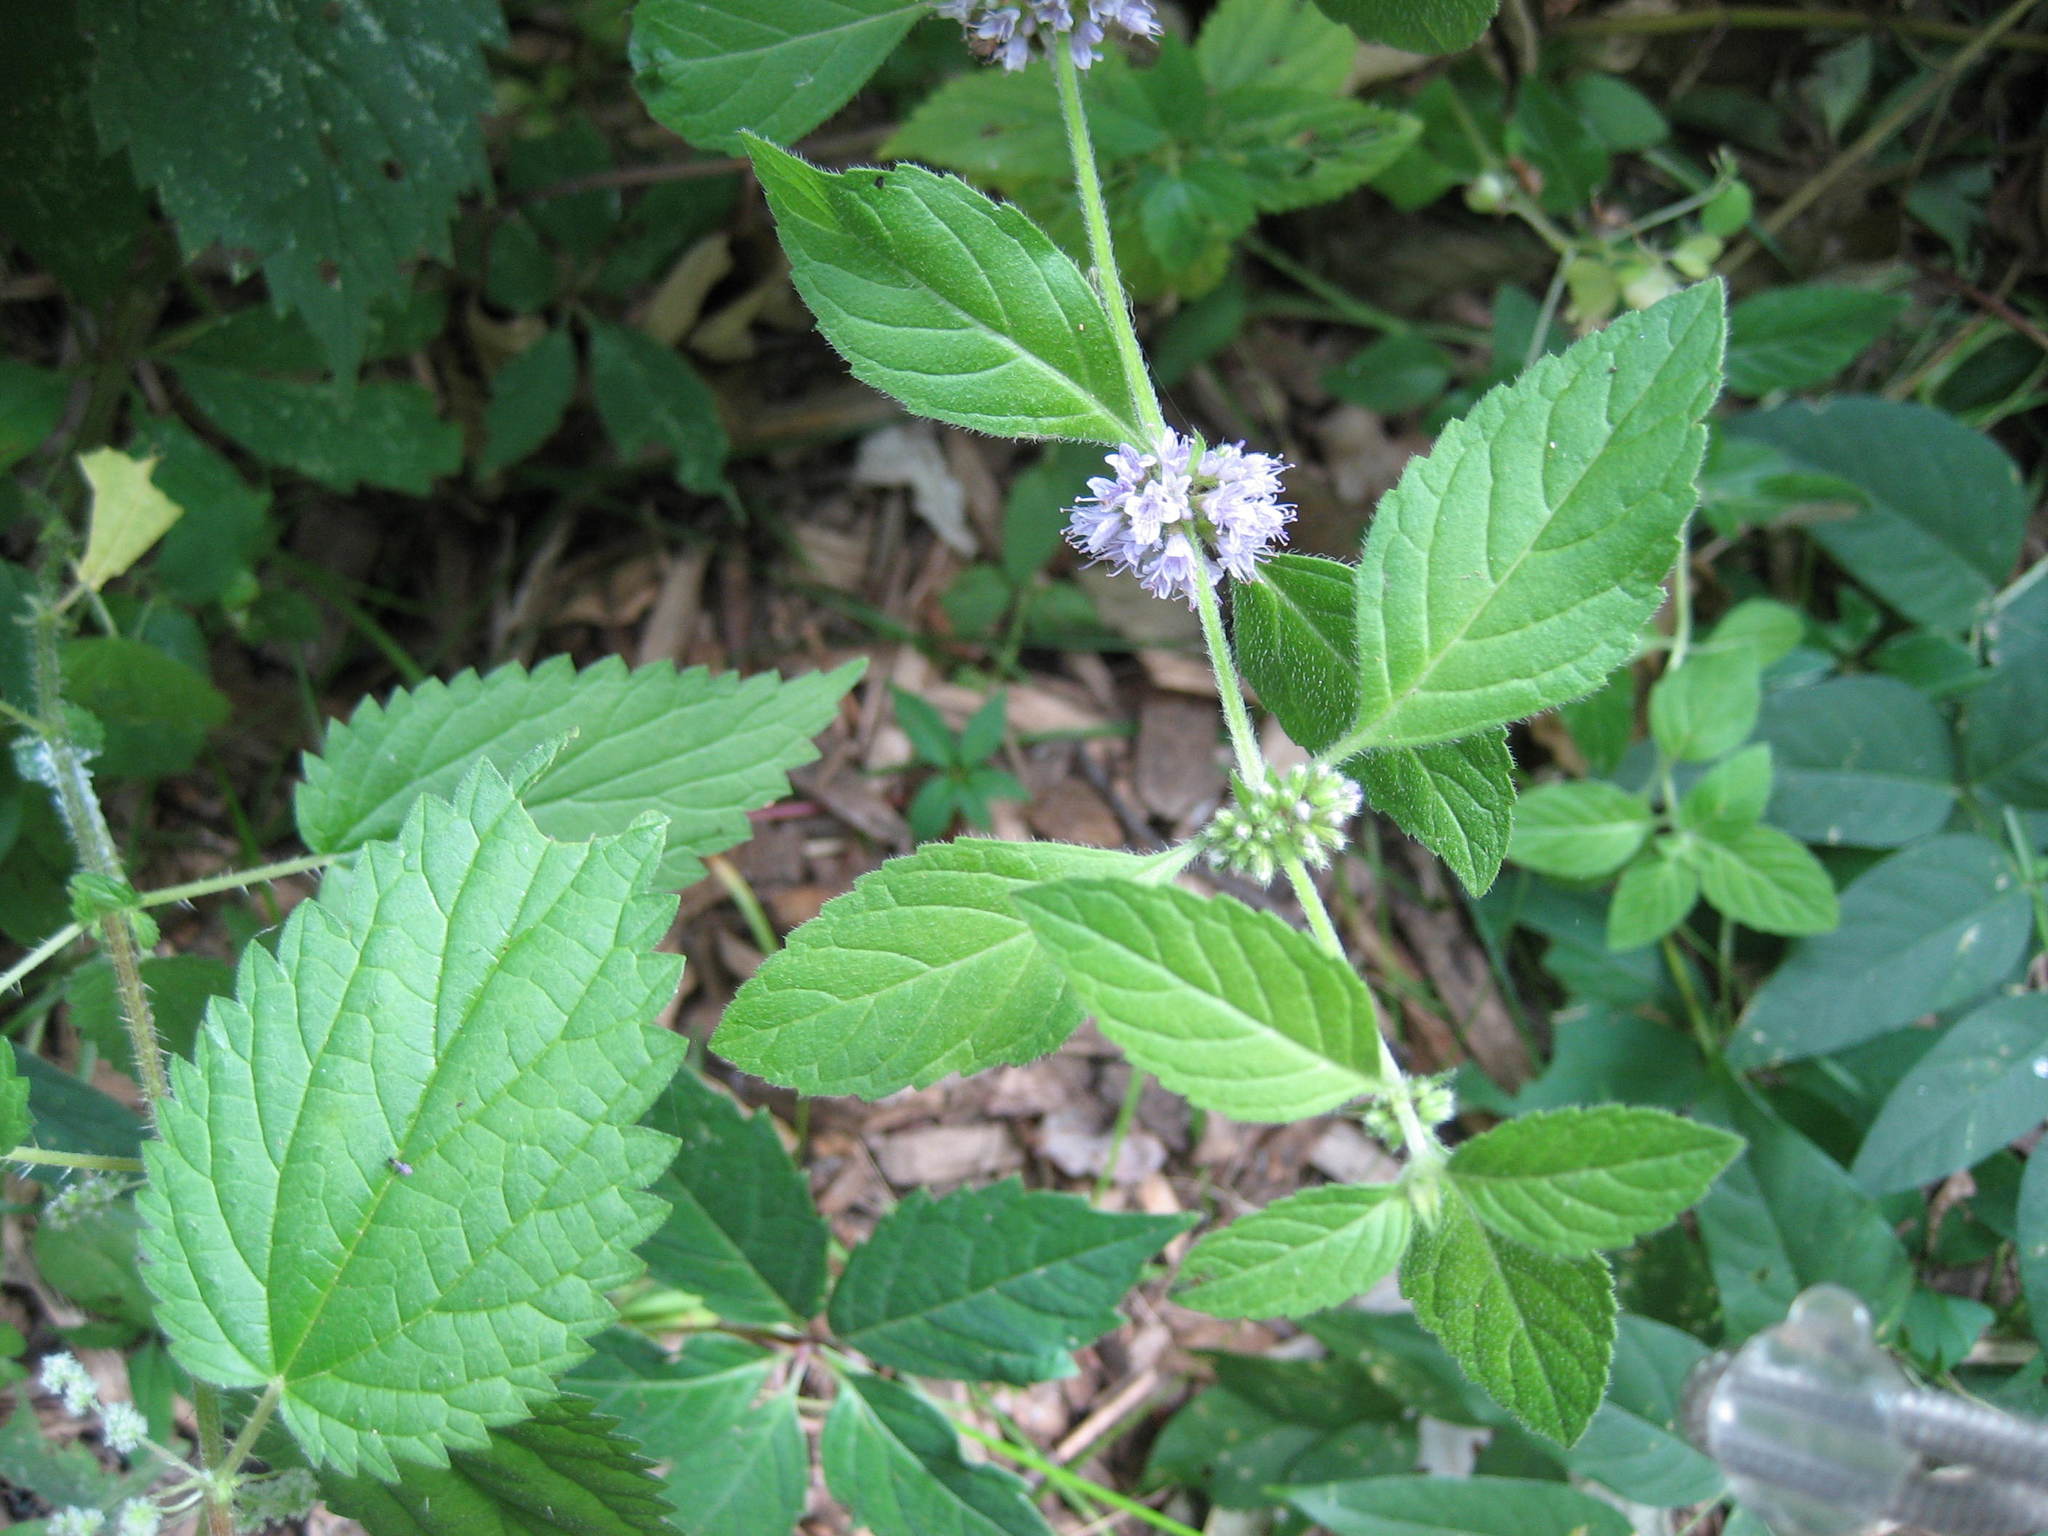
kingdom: Plantae
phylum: Tracheophyta
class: Magnoliopsida
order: Lamiales
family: Lamiaceae
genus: Mentha
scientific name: Mentha canadensis
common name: American corn mint
